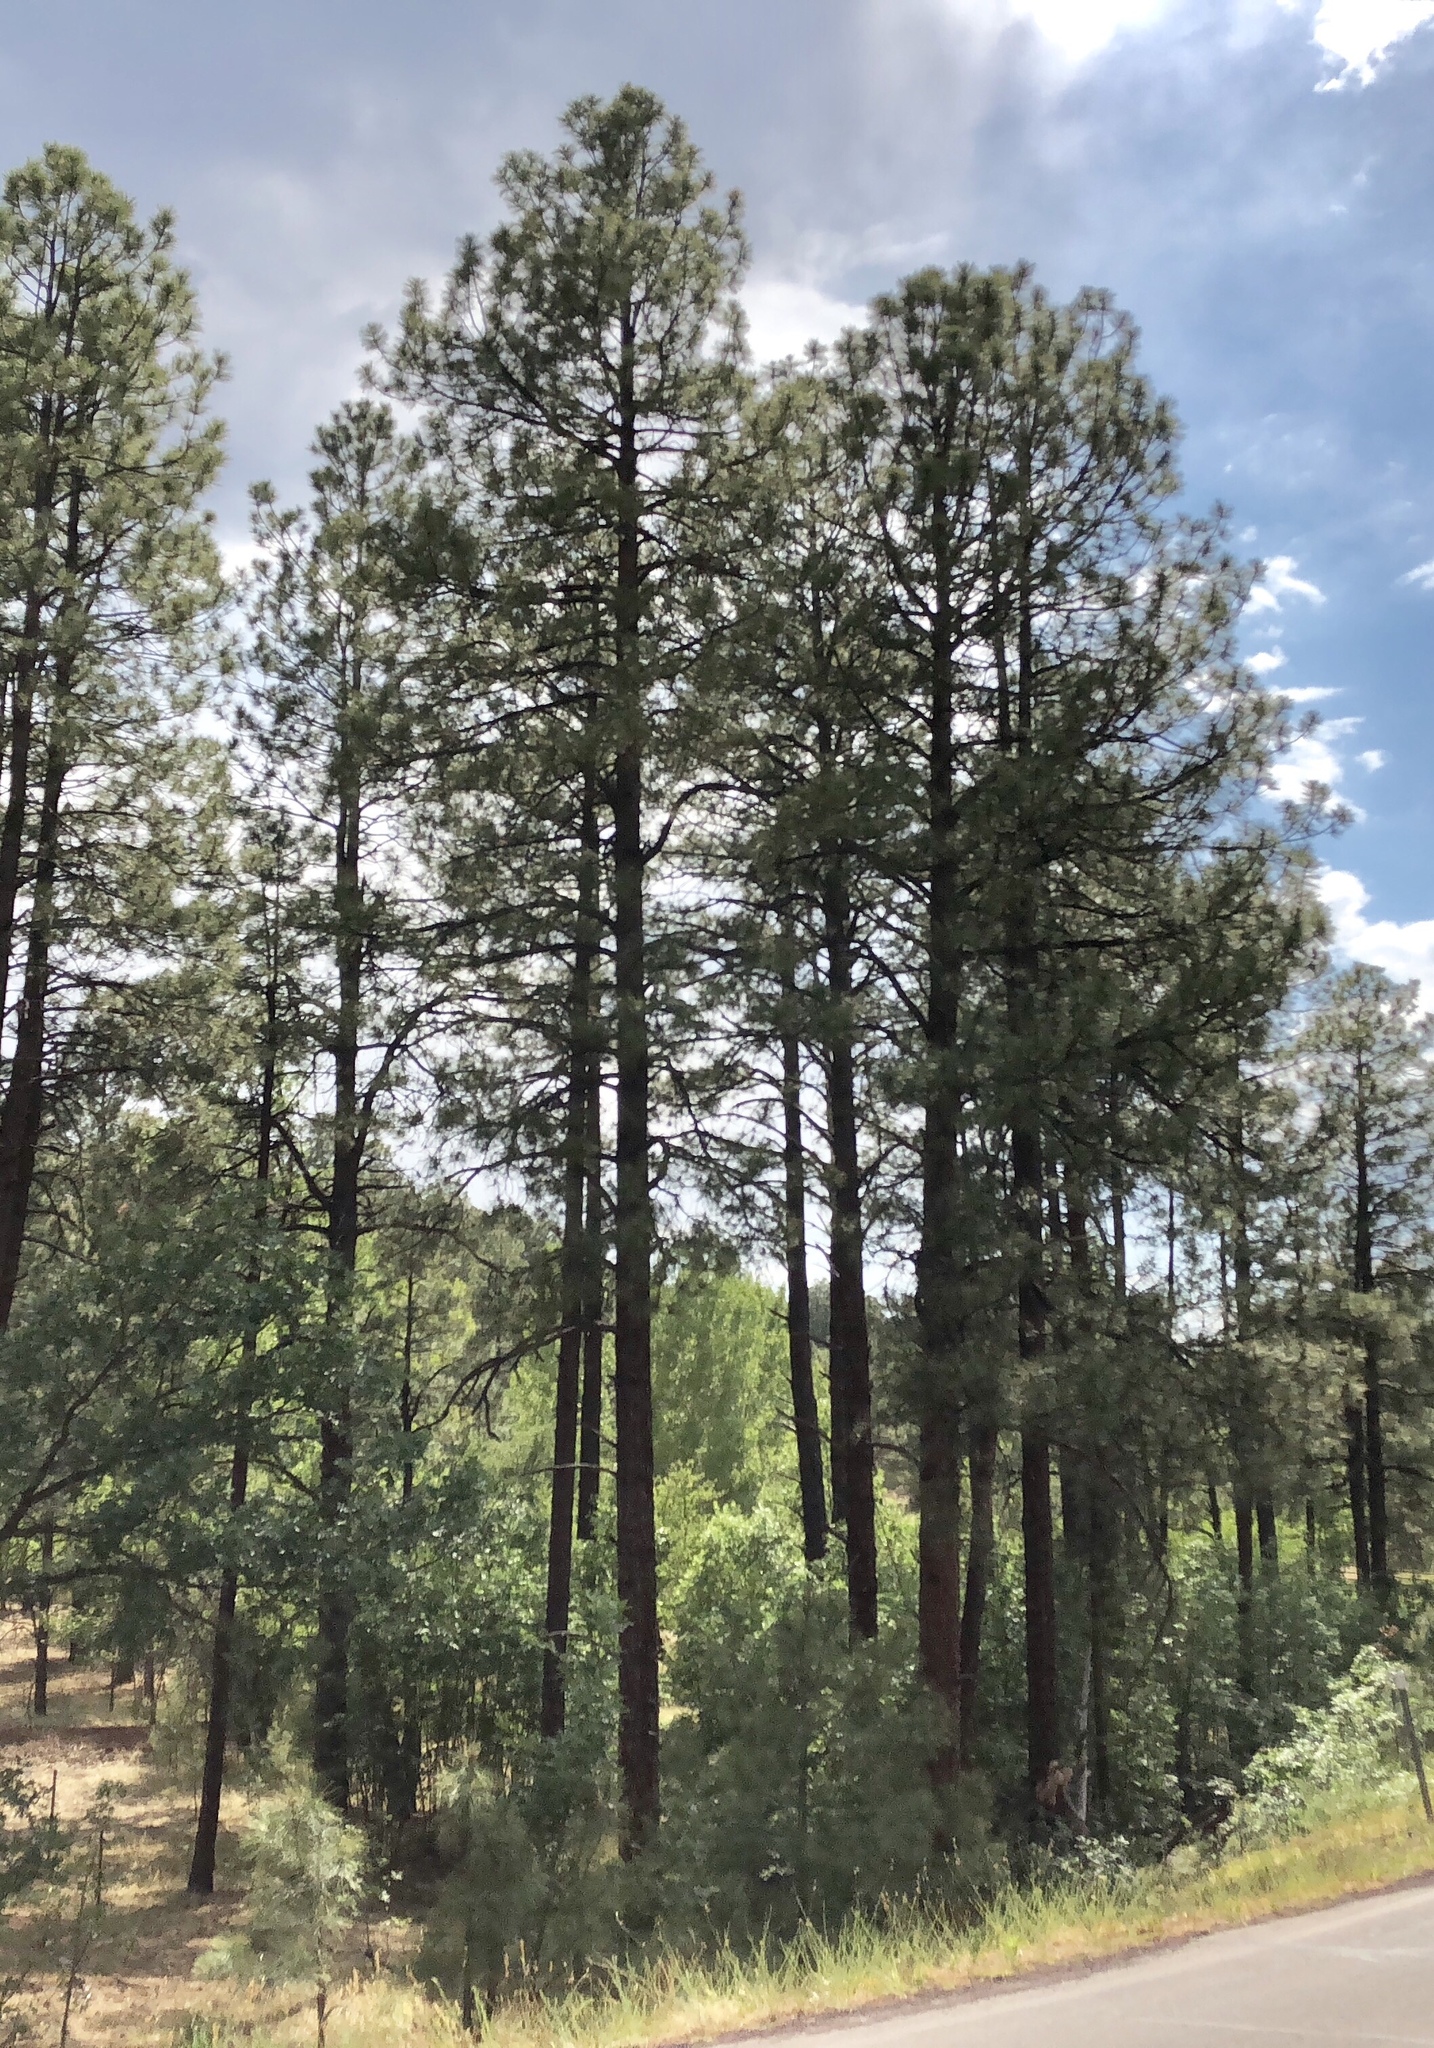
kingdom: Plantae
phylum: Tracheophyta
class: Pinopsida
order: Pinales
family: Pinaceae
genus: Pinus
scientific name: Pinus ponderosa
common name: Western yellow-pine
